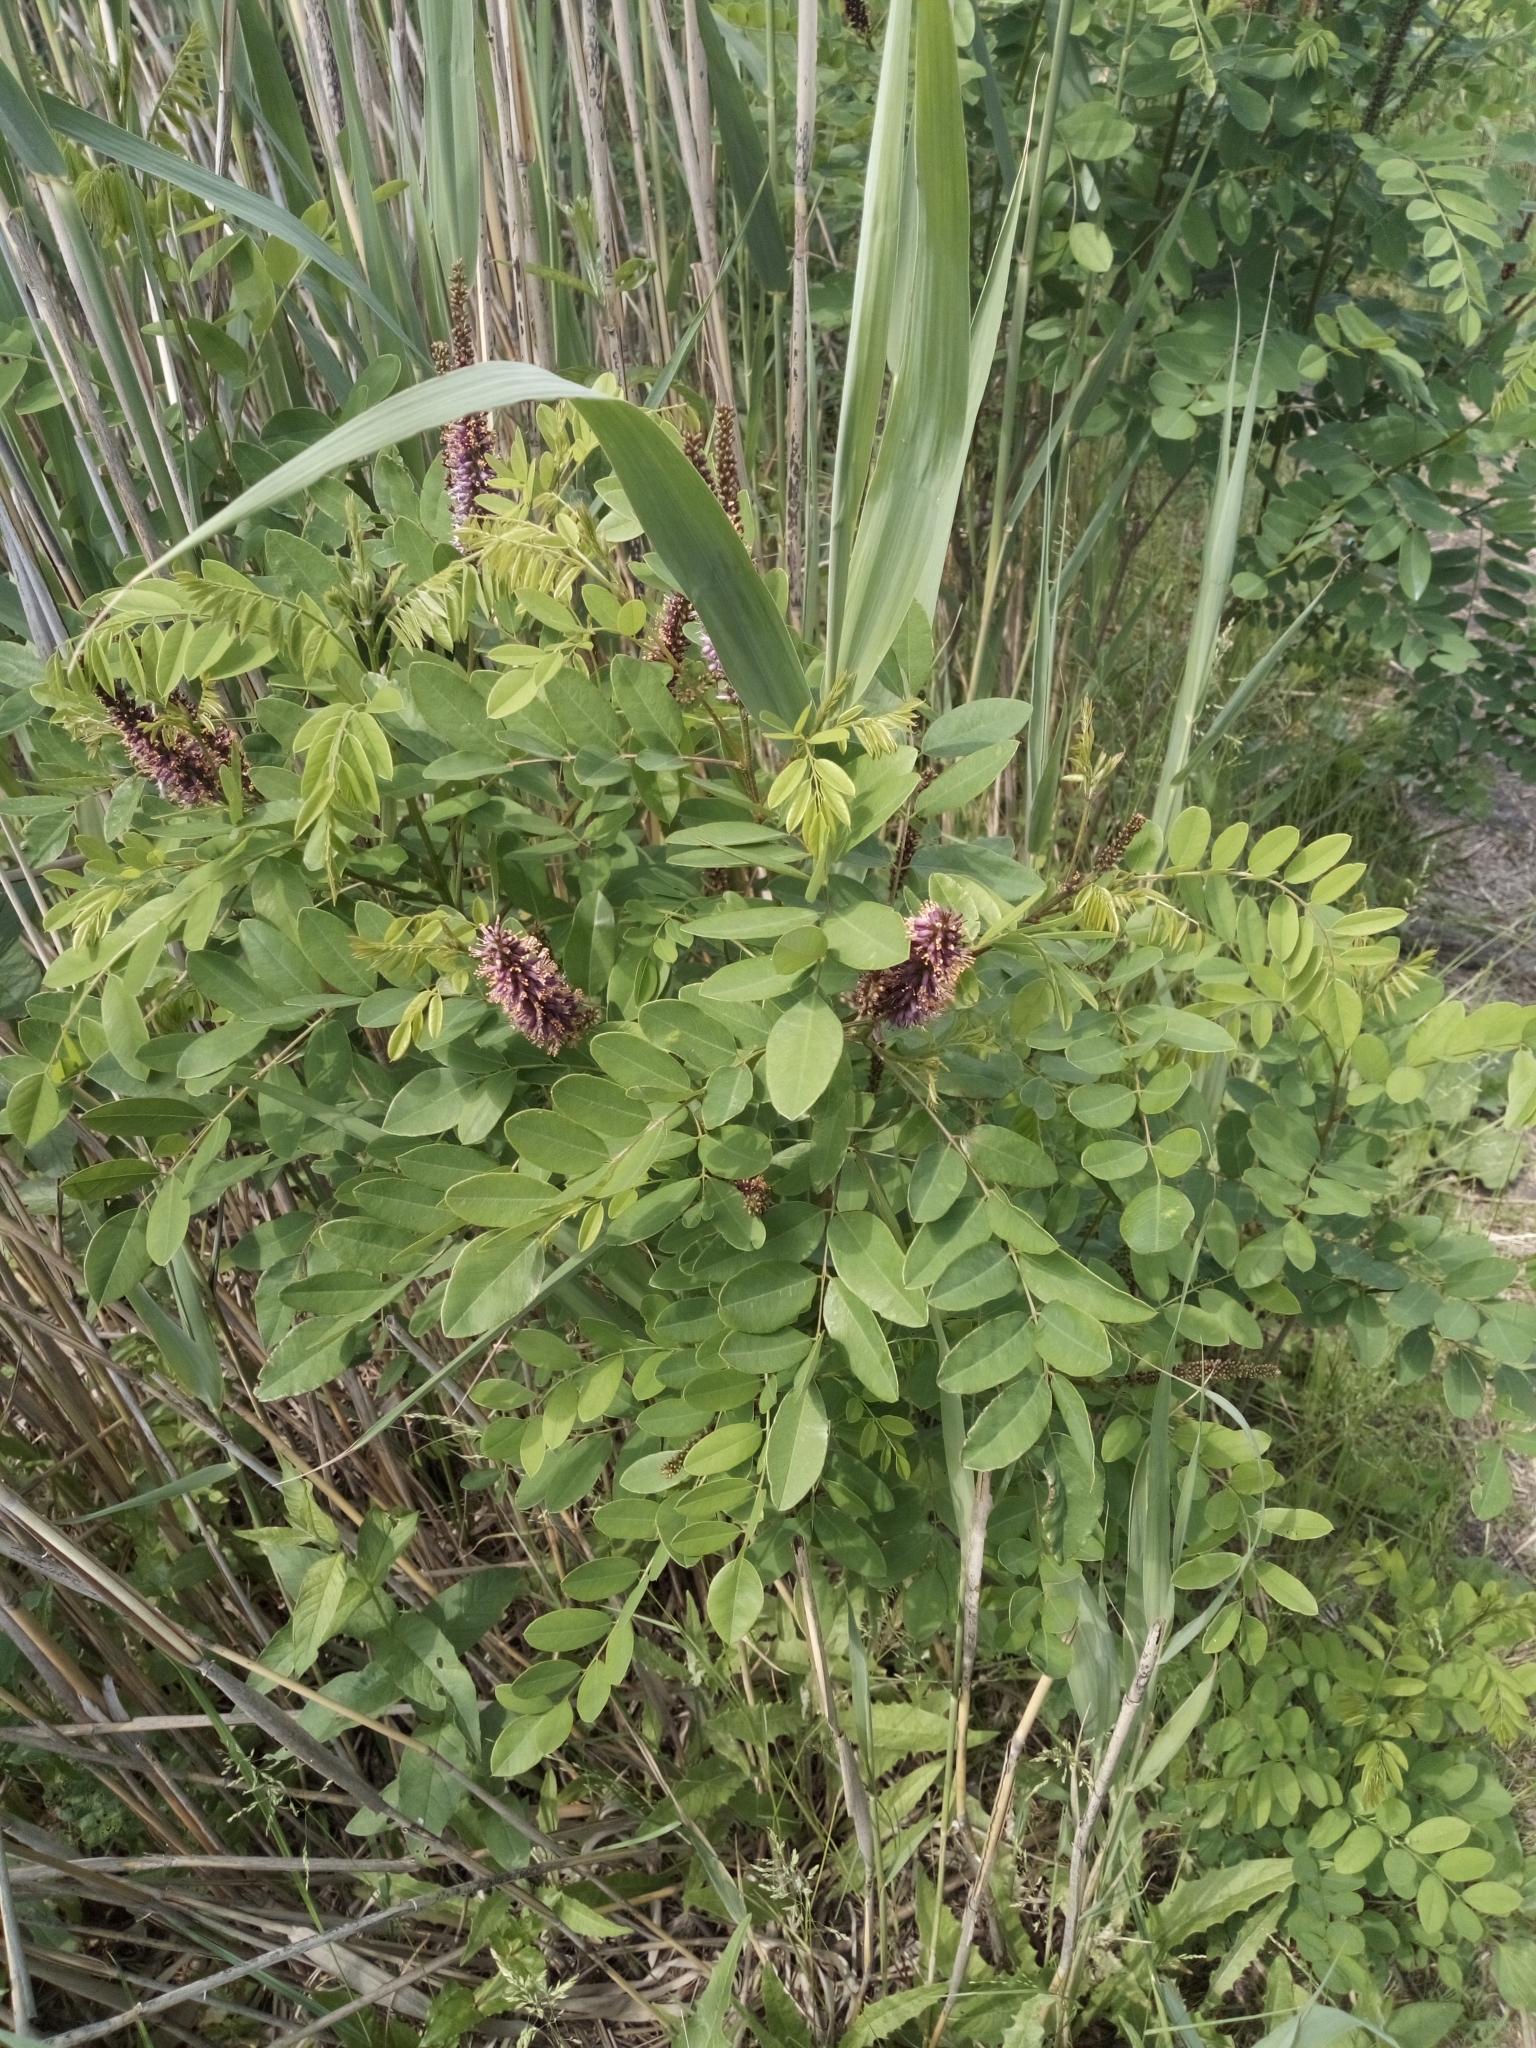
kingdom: Plantae
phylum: Tracheophyta
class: Magnoliopsida
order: Fabales
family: Fabaceae
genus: Amorpha
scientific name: Amorpha fruticosa
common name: False indigo
